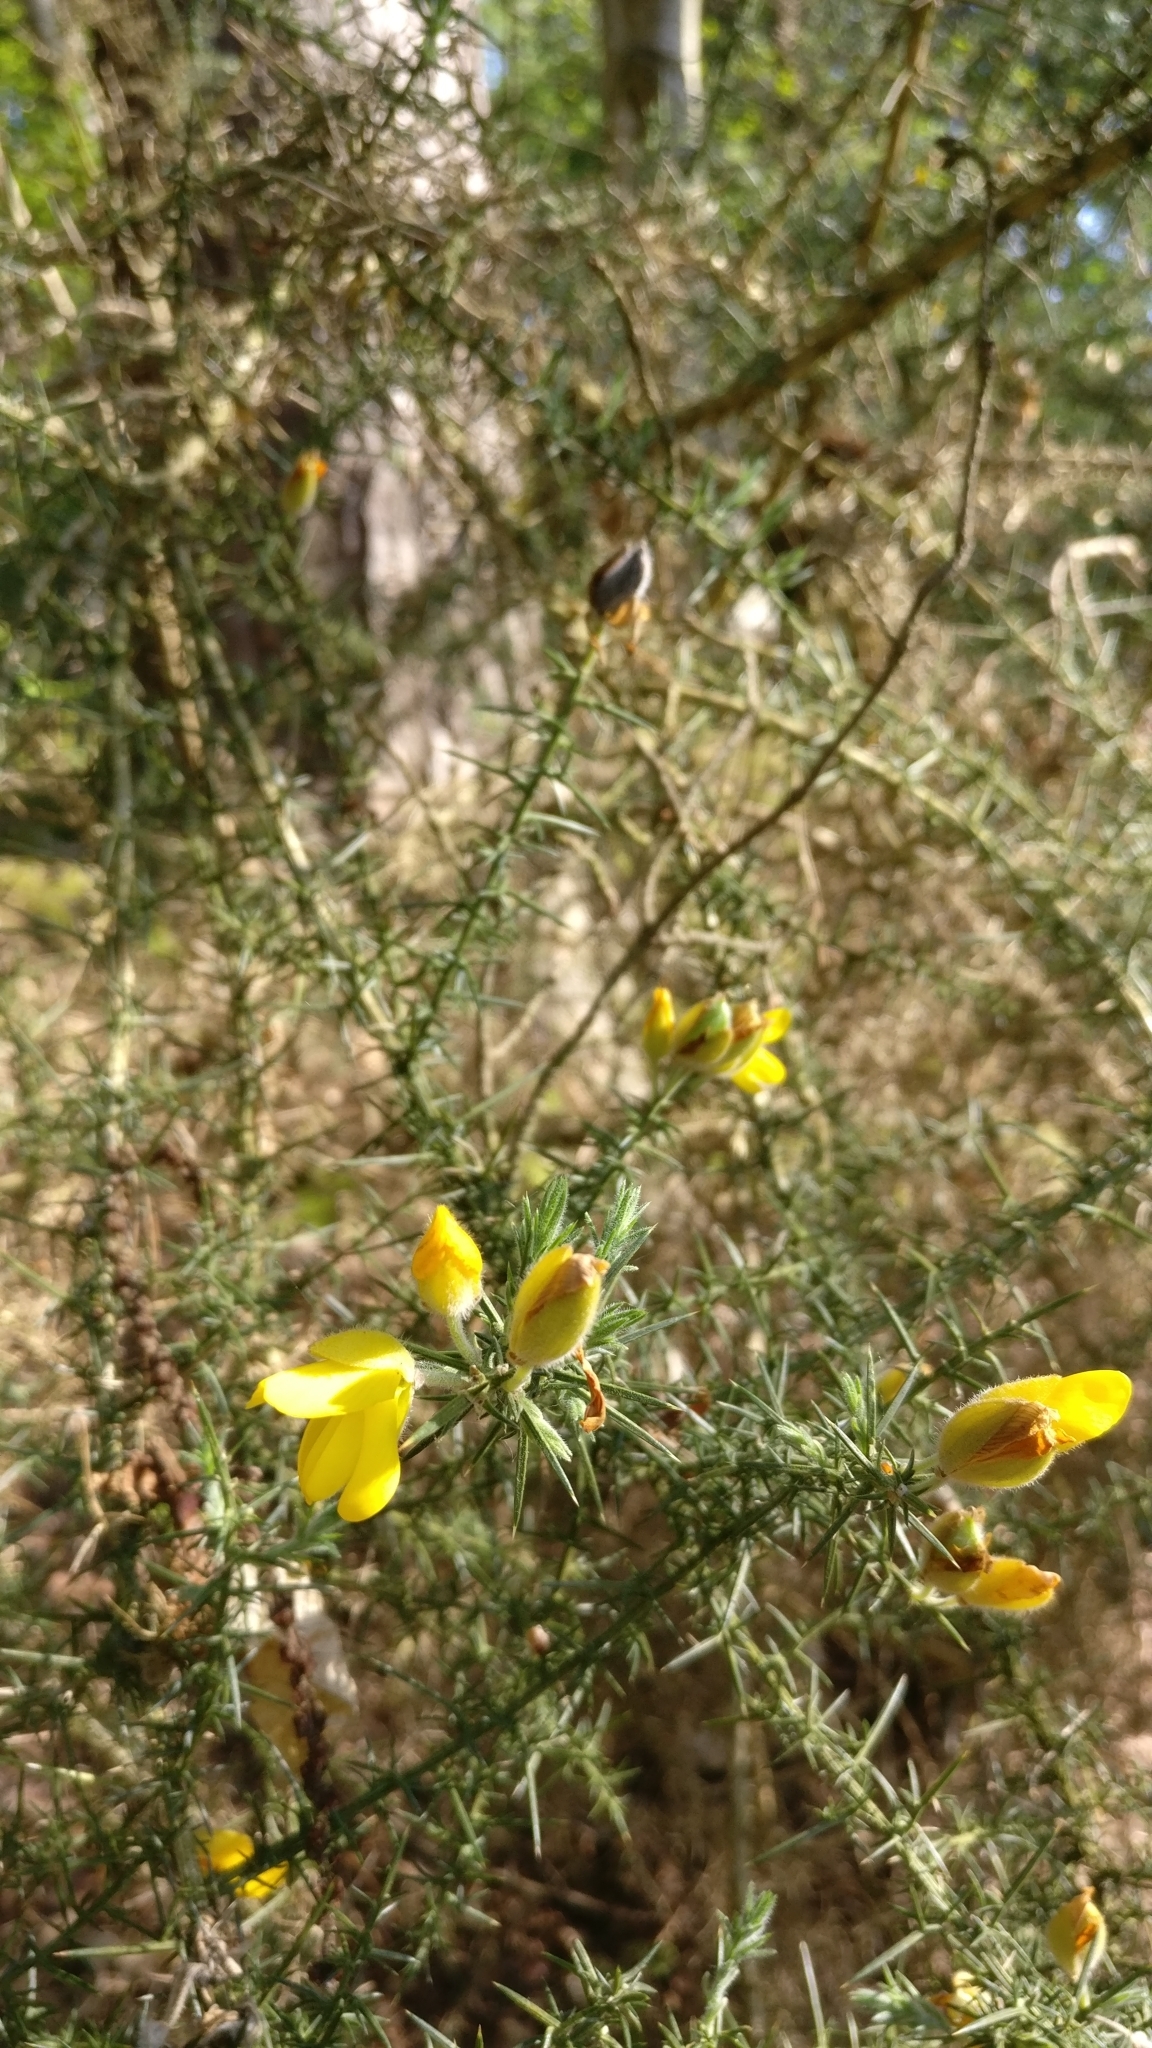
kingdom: Plantae
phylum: Tracheophyta
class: Magnoliopsida
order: Fabales
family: Fabaceae
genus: Ulex
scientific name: Ulex europaeus
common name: Common gorse
